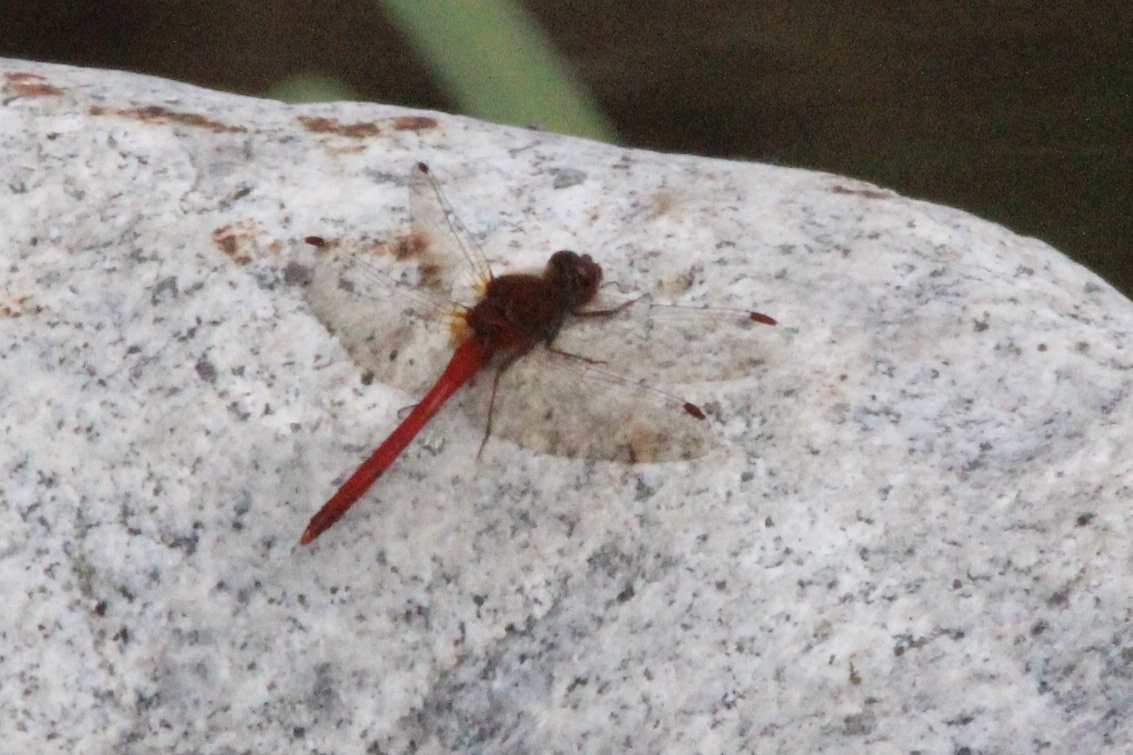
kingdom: Animalia
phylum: Arthropoda
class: Insecta
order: Odonata
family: Libellulidae
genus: Sympetrum
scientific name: Sympetrum vicinum
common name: Autumn meadowhawk
